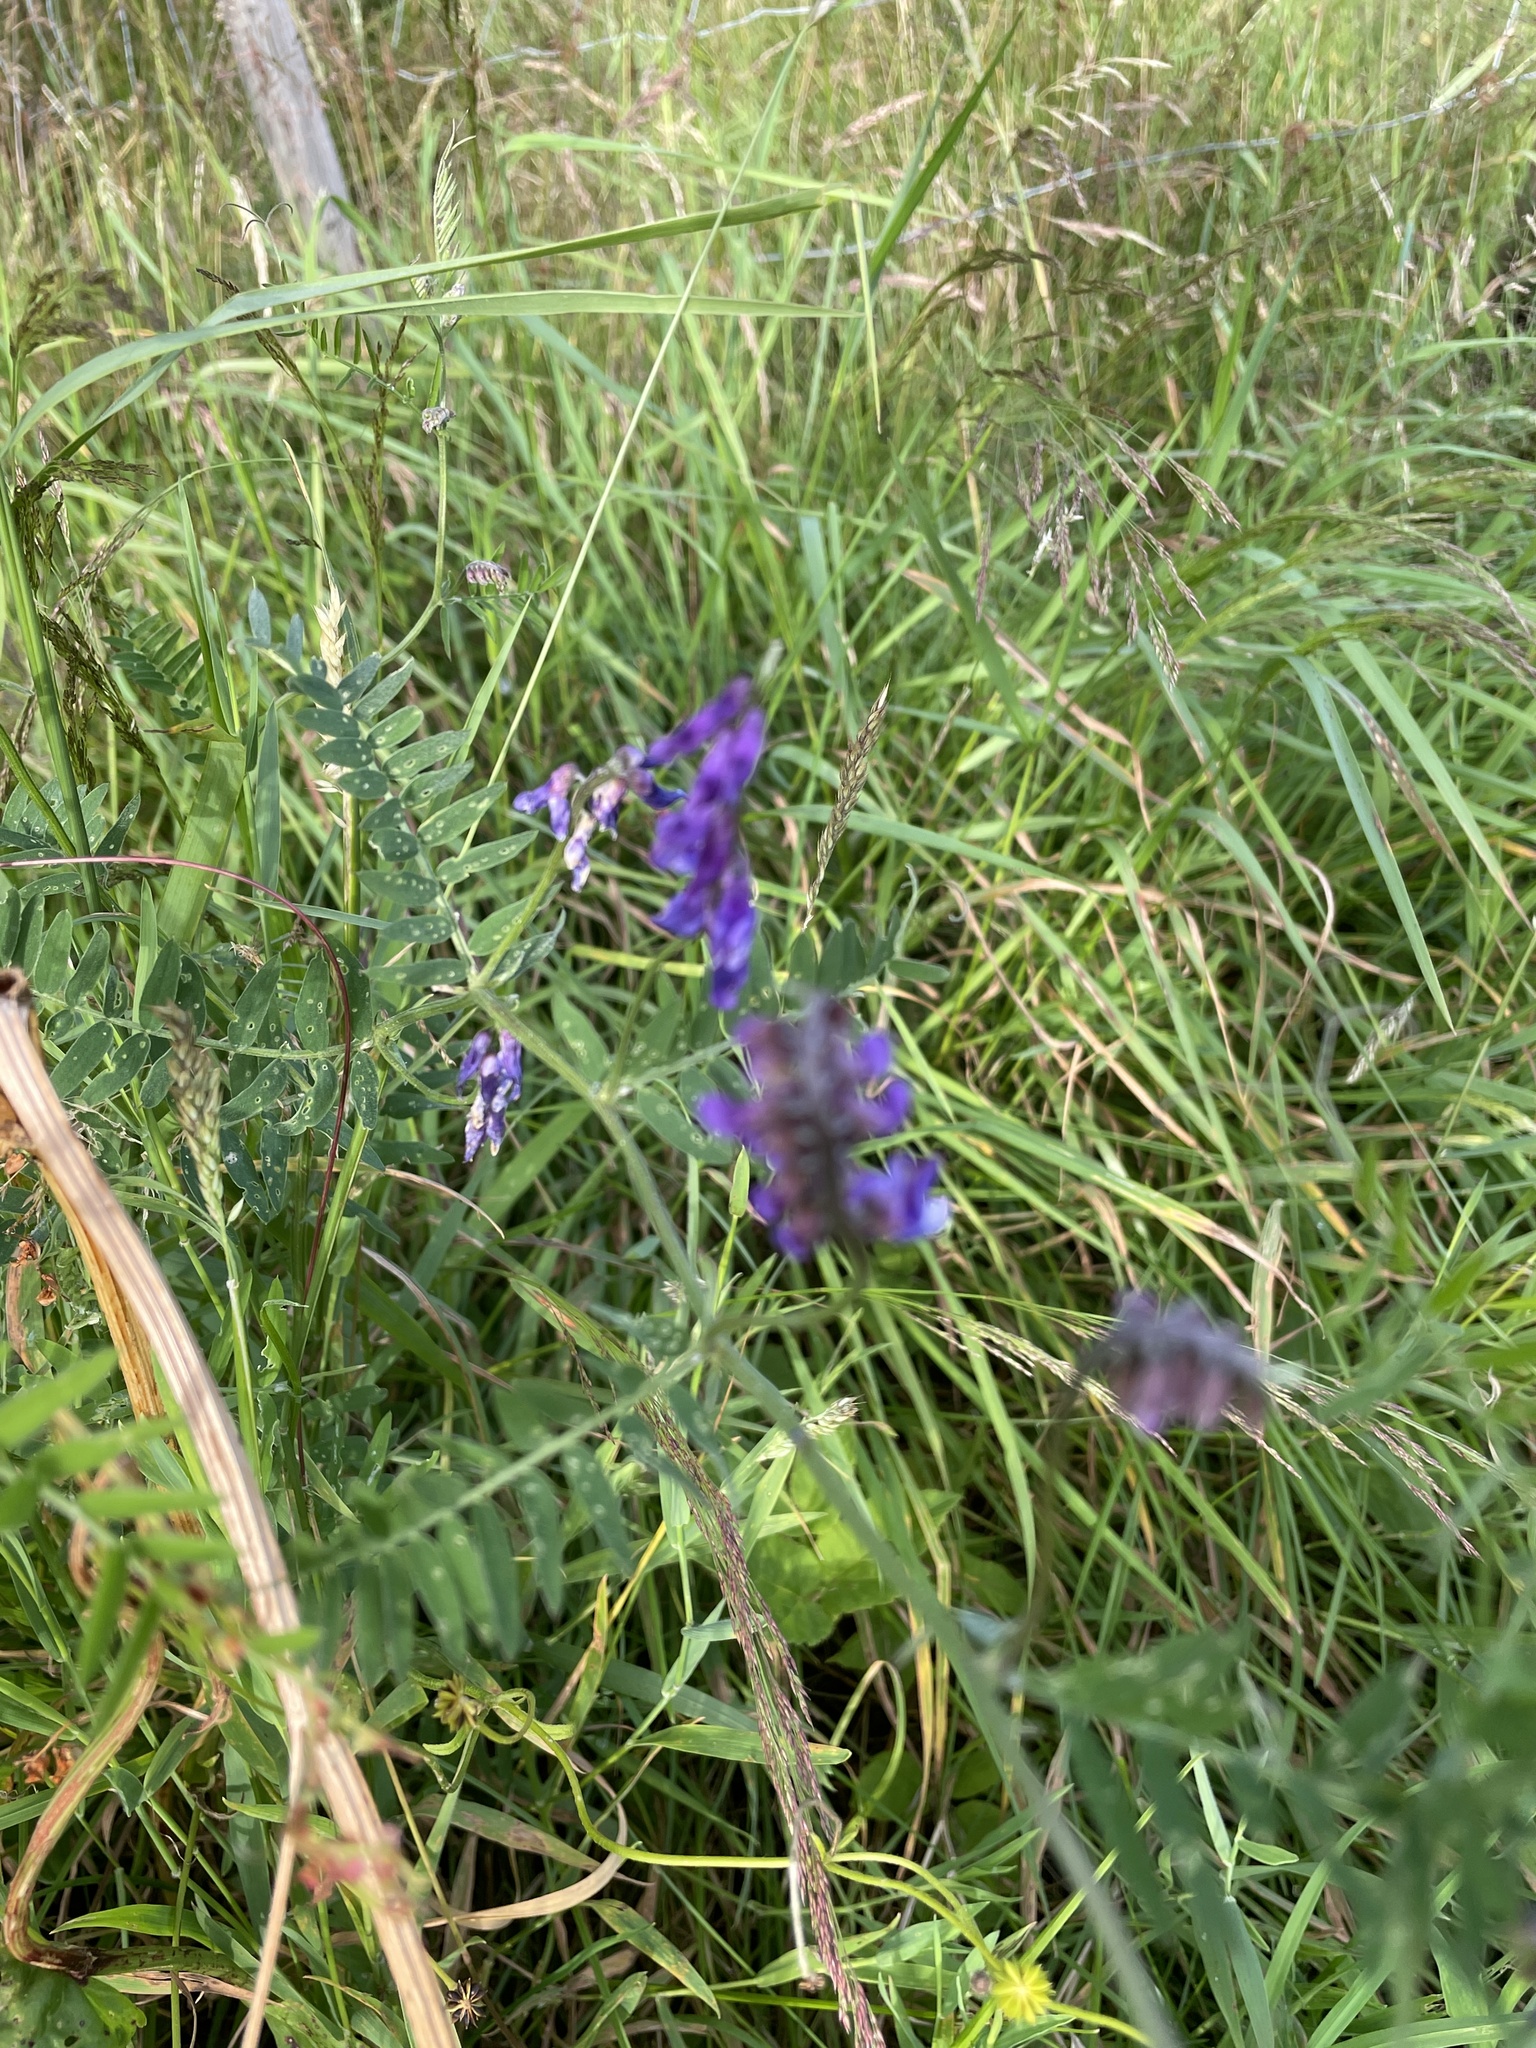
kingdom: Plantae
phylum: Tracheophyta
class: Magnoliopsida
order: Fabales
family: Fabaceae
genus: Vicia
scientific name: Vicia cracca
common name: Bird vetch
